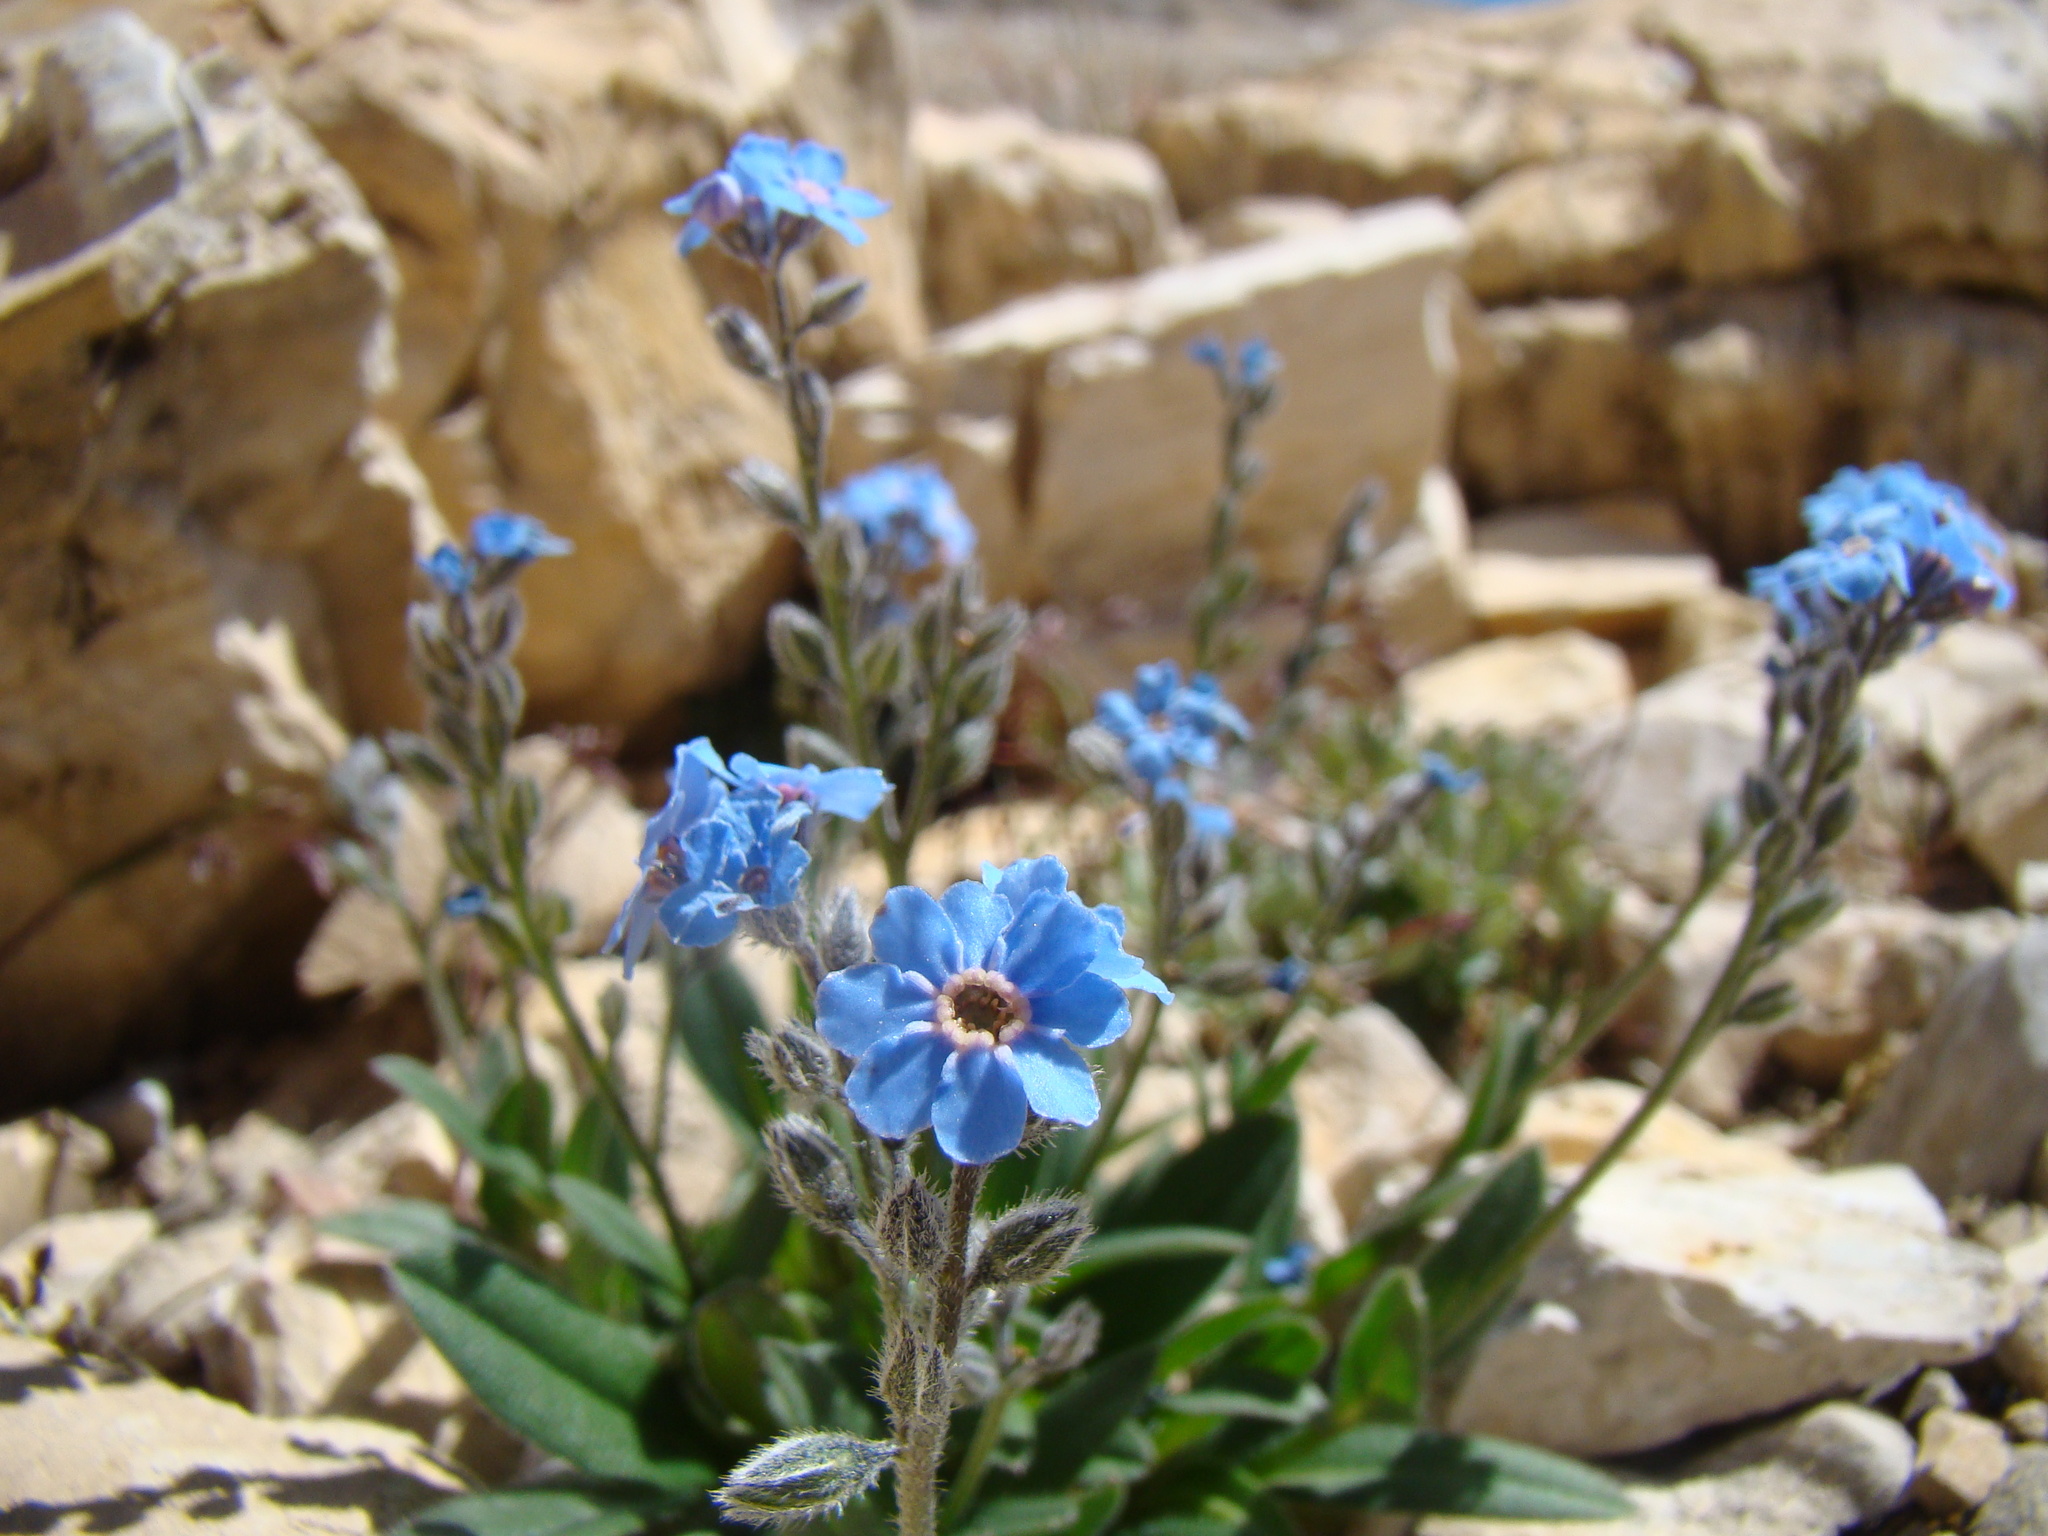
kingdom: Plantae
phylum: Tracheophyta
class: Magnoliopsida
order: Boraginales
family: Boraginaceae
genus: Myosotis
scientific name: Myosotis alpestris
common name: Alpine forget-me-not
